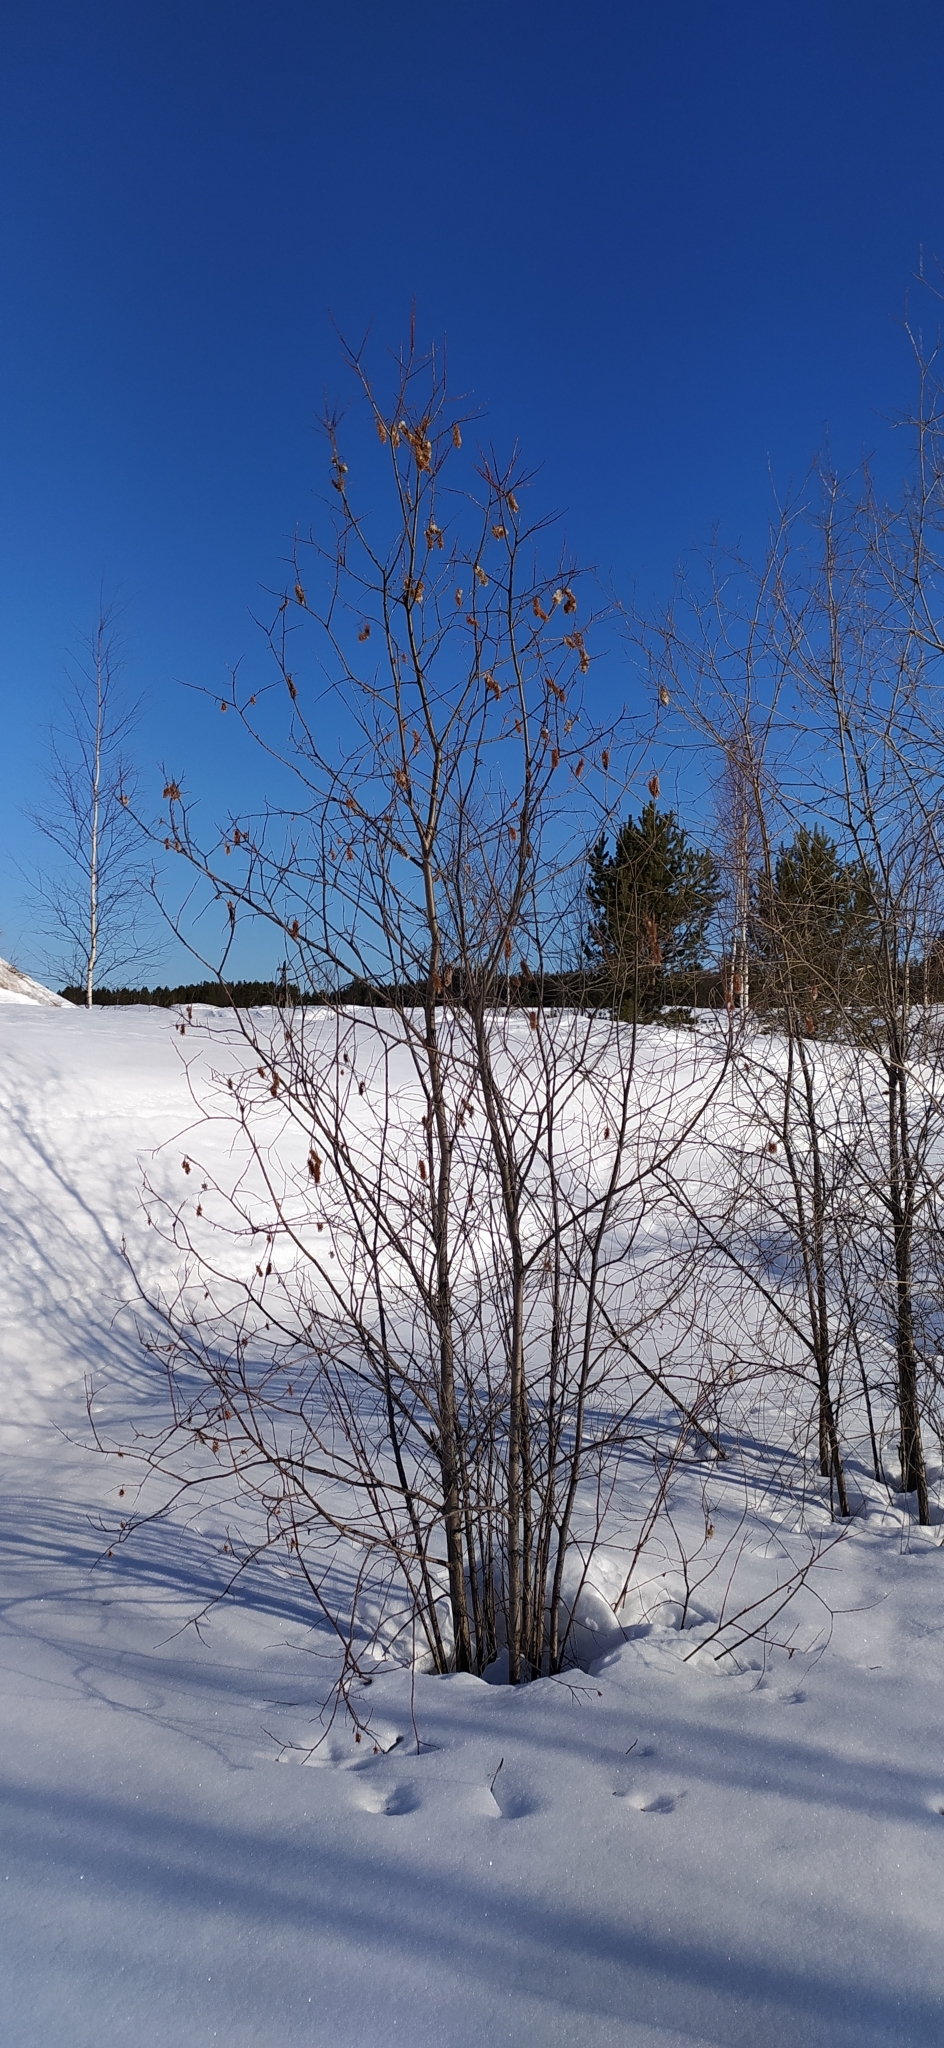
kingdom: Plantae
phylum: Tracheophyta
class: Magnoliopsida
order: Malpighiales
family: Salicaceae
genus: Salix
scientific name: Salix pentandra
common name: Bay willow
